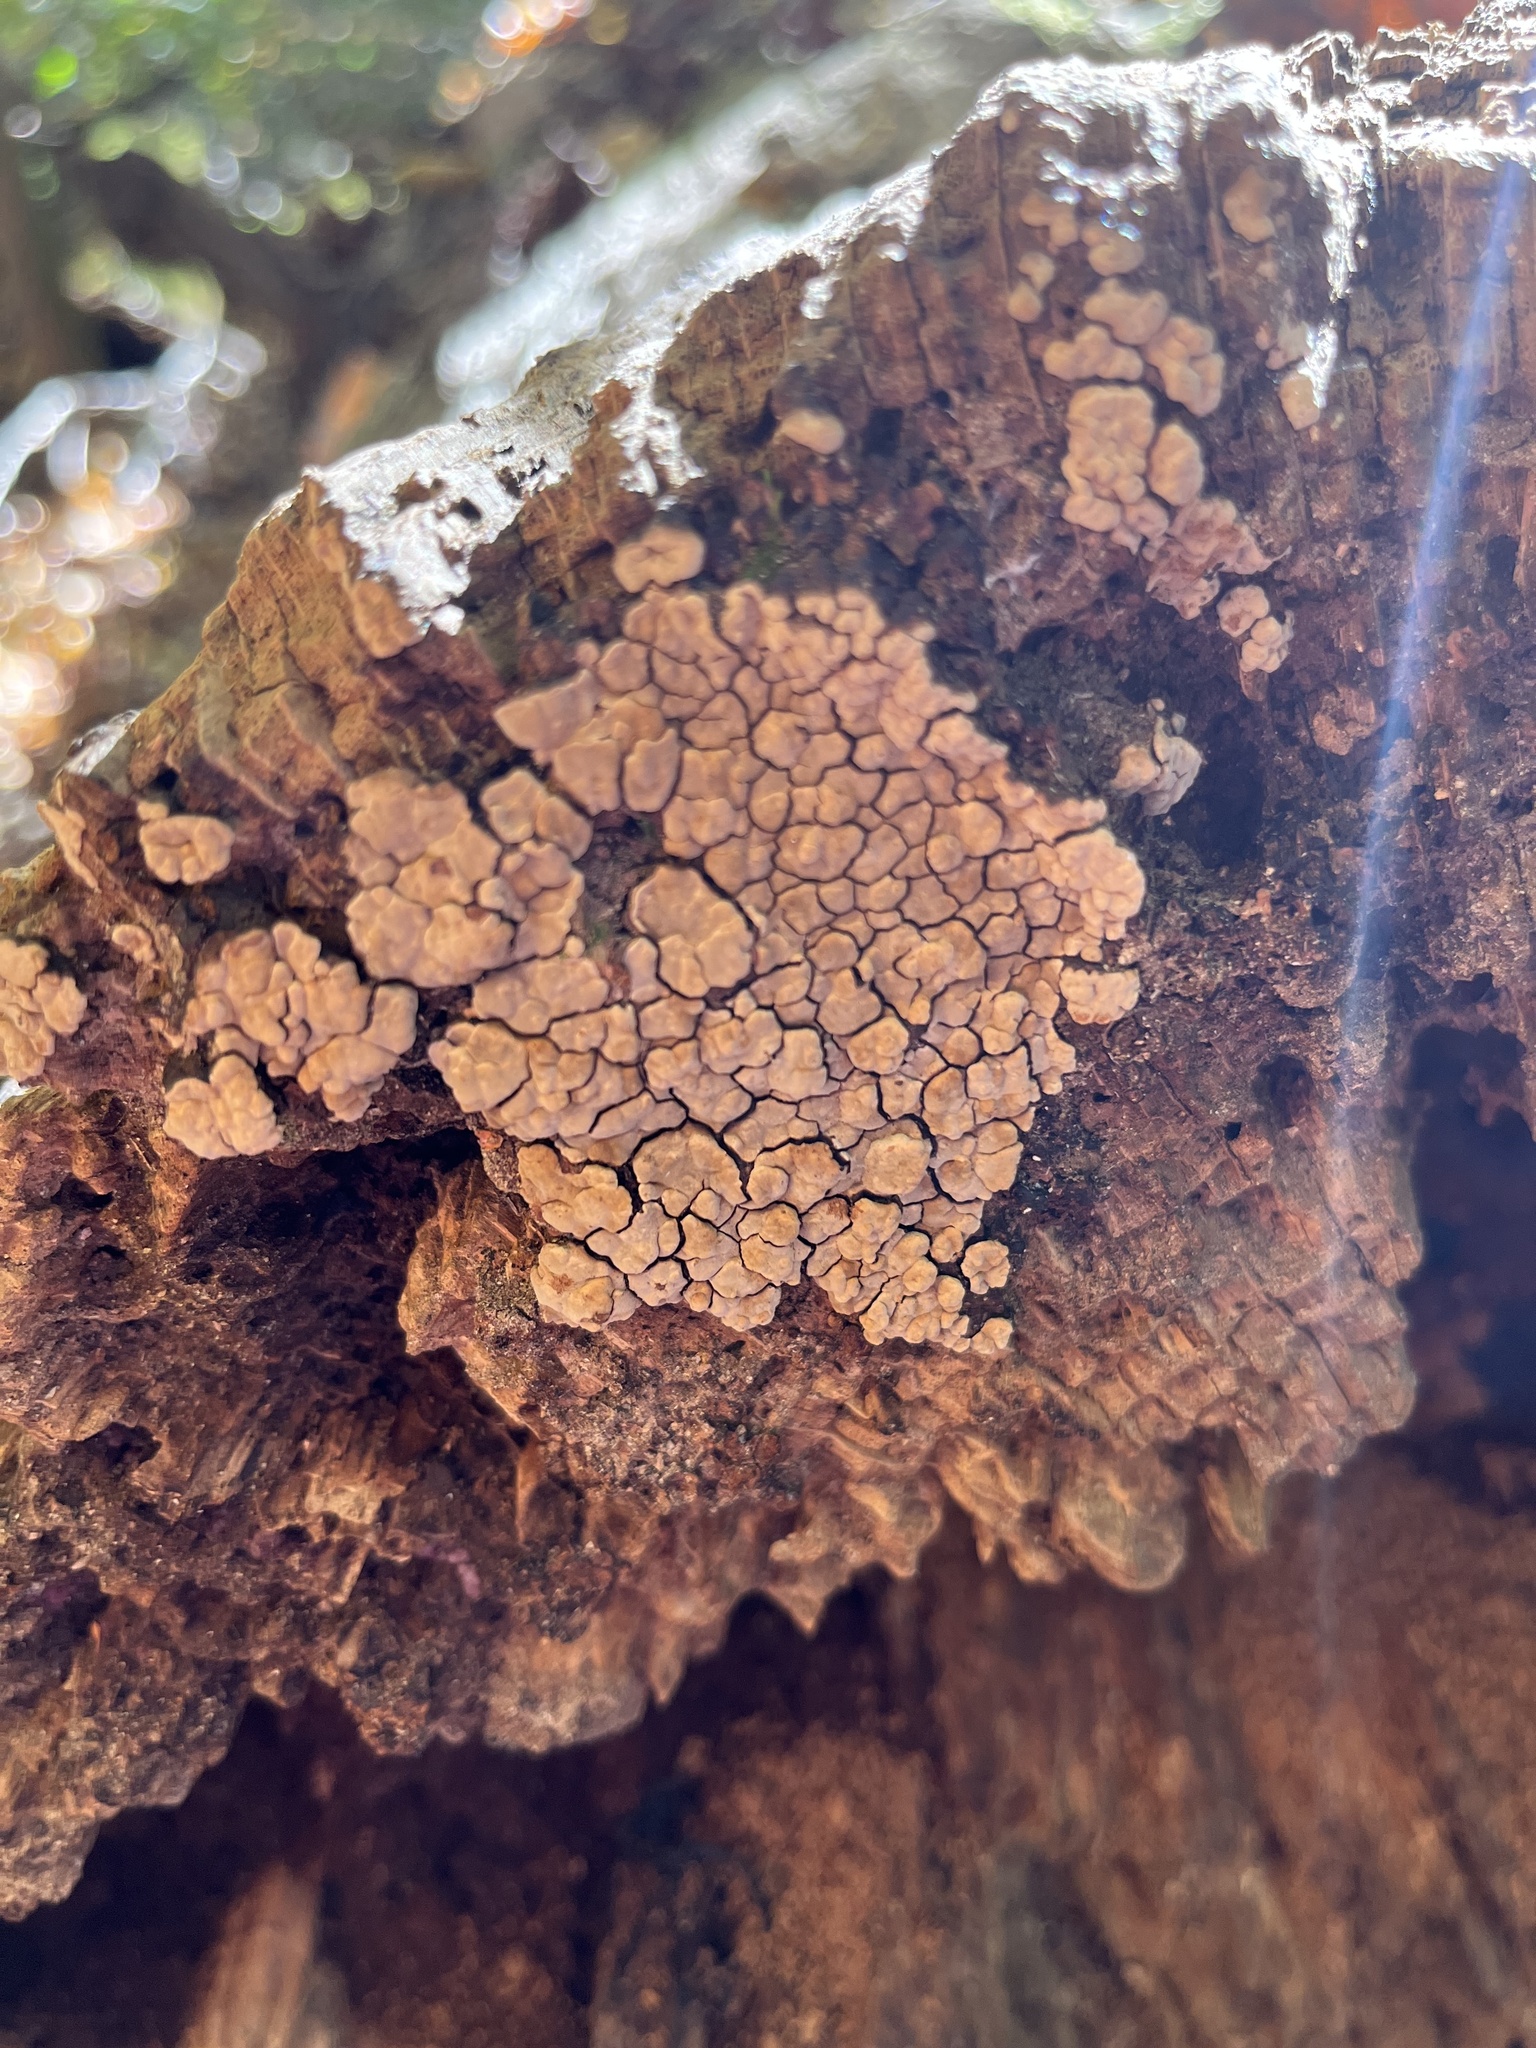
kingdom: Fungi
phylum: Basidiomycota
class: Agaricomycetes
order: Russulales
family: Stereaceae
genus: Xylobolus
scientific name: Xylobolus frustulatus
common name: Ceramic parchment
